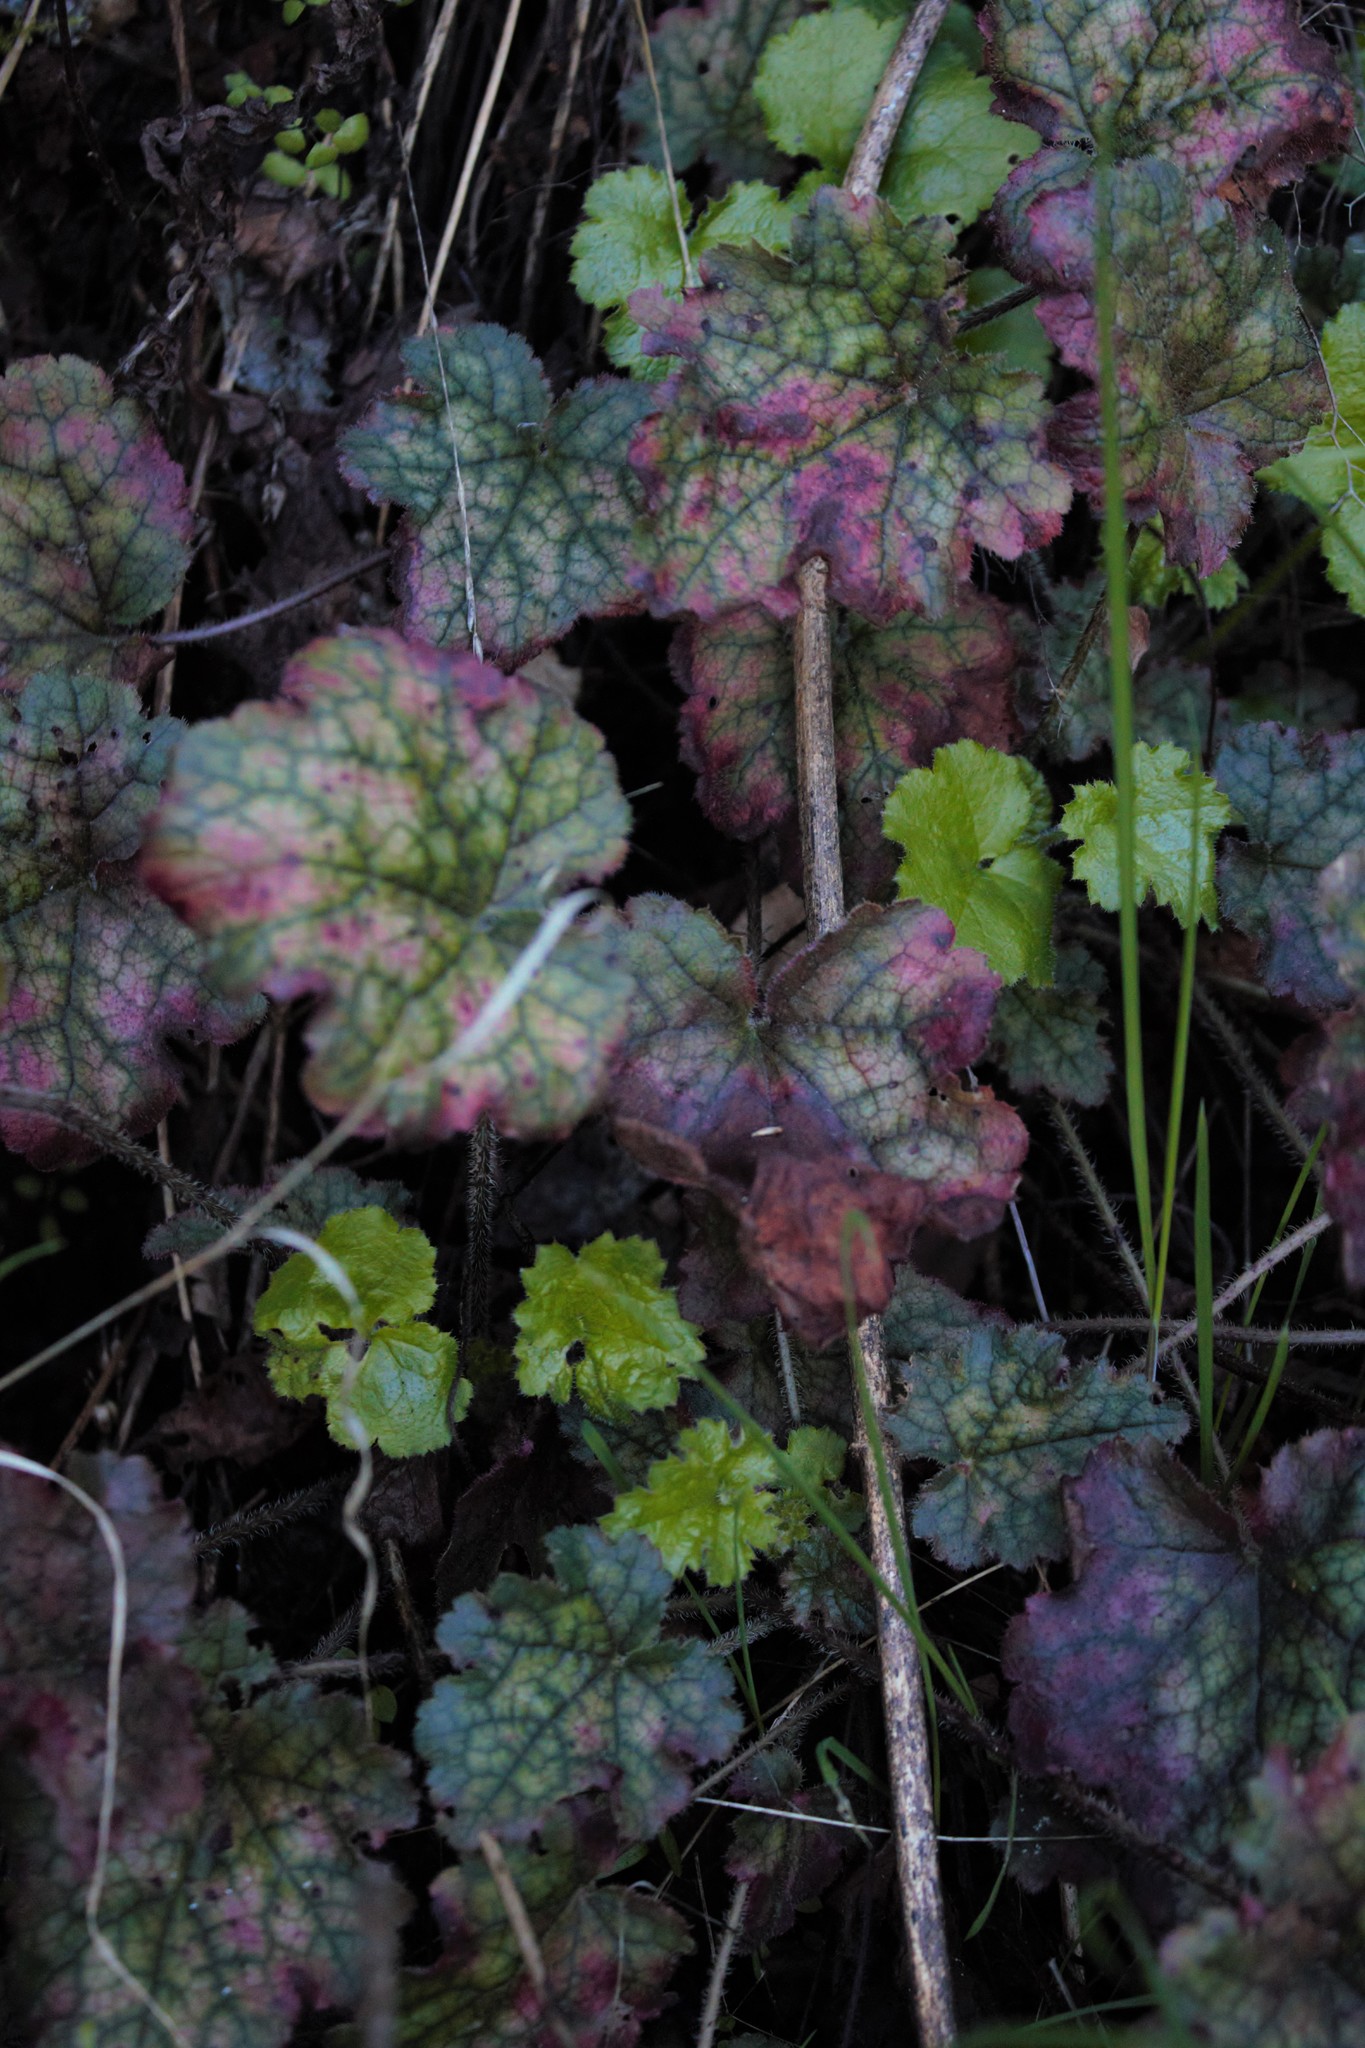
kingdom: Plantae
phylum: Tracheophyta
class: Magnoliopsida
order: Saxifragales
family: Saxifragaceae
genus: Heuchera
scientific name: Heuchera micrantha
